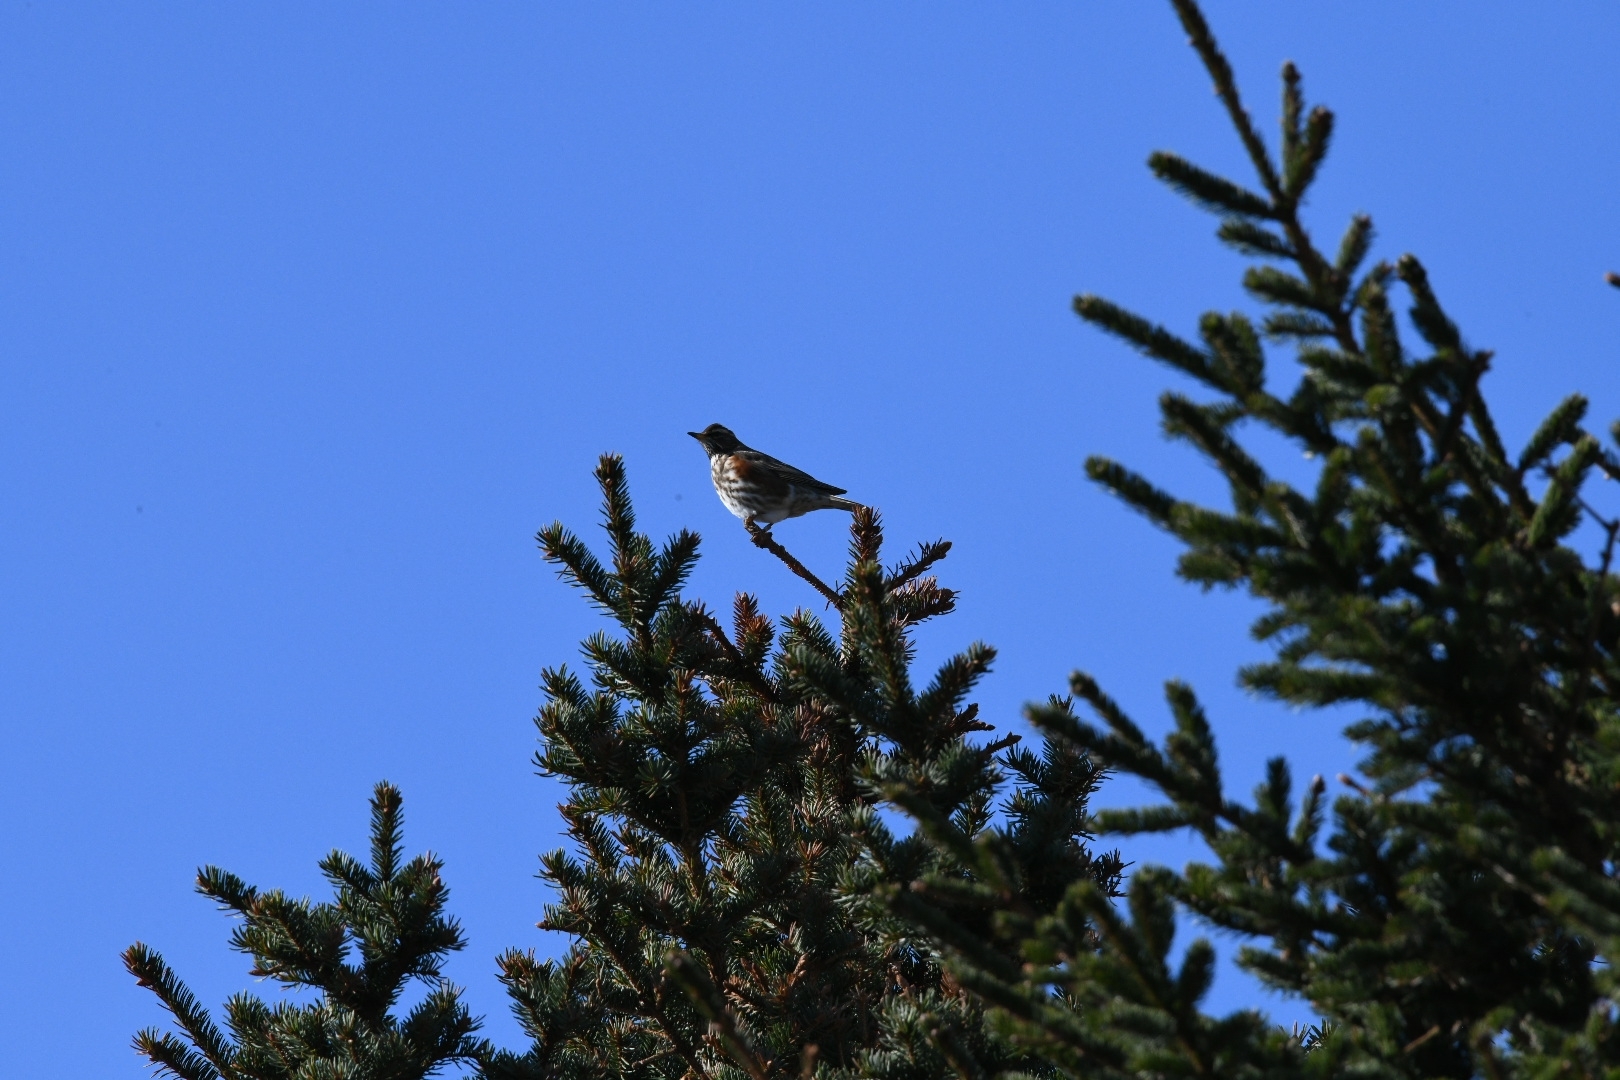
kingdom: Animalia
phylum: Chordata
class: Aves
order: Passeriformes
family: Turdidae
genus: Turdus
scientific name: Turdus iliacus
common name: Redwing
